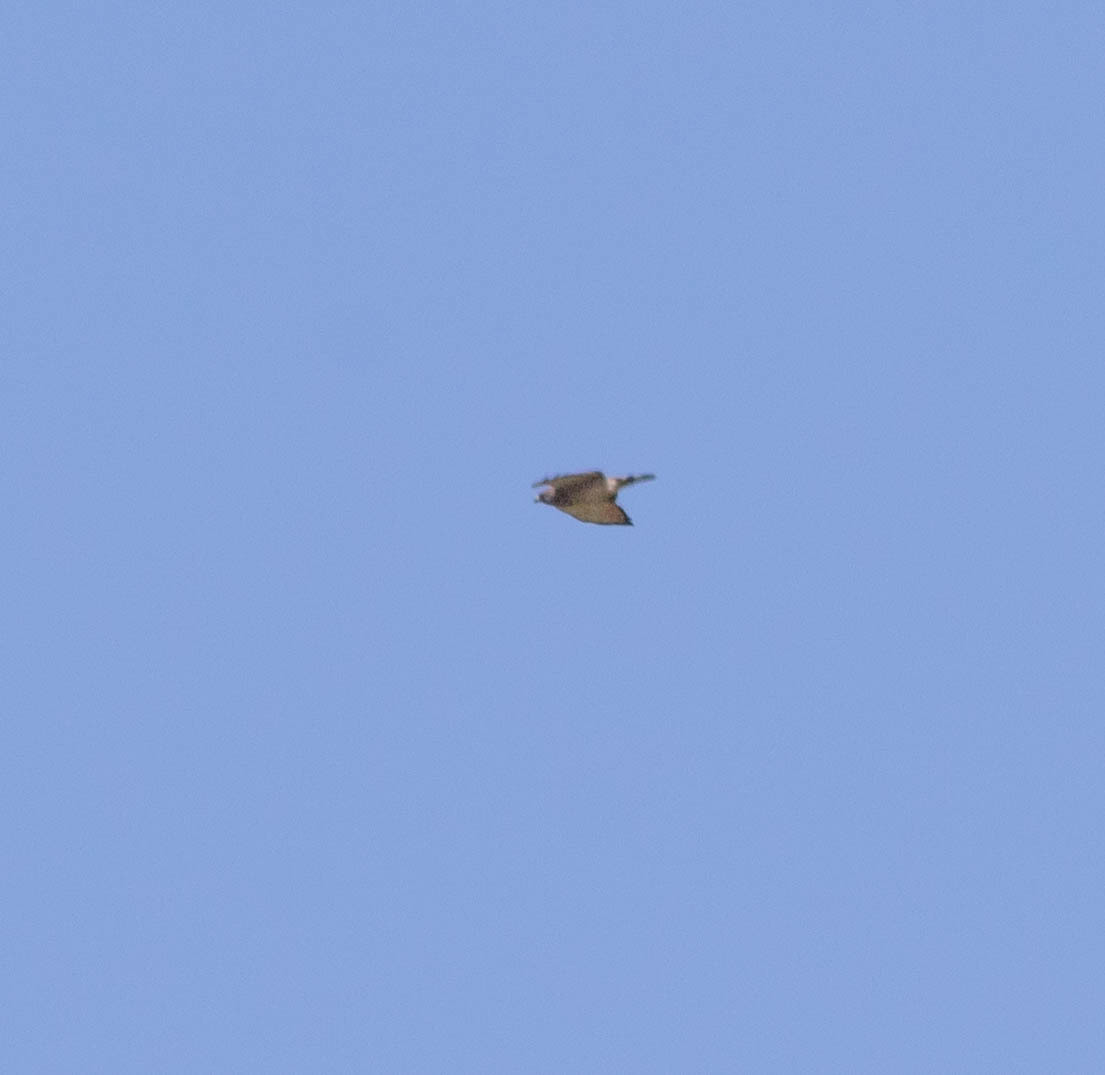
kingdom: Animalia
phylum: Chordata
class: Aves
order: Accipitriformes
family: Accipitridae
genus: Buteo
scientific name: Buteo platypterus
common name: Broad-winged hawk
